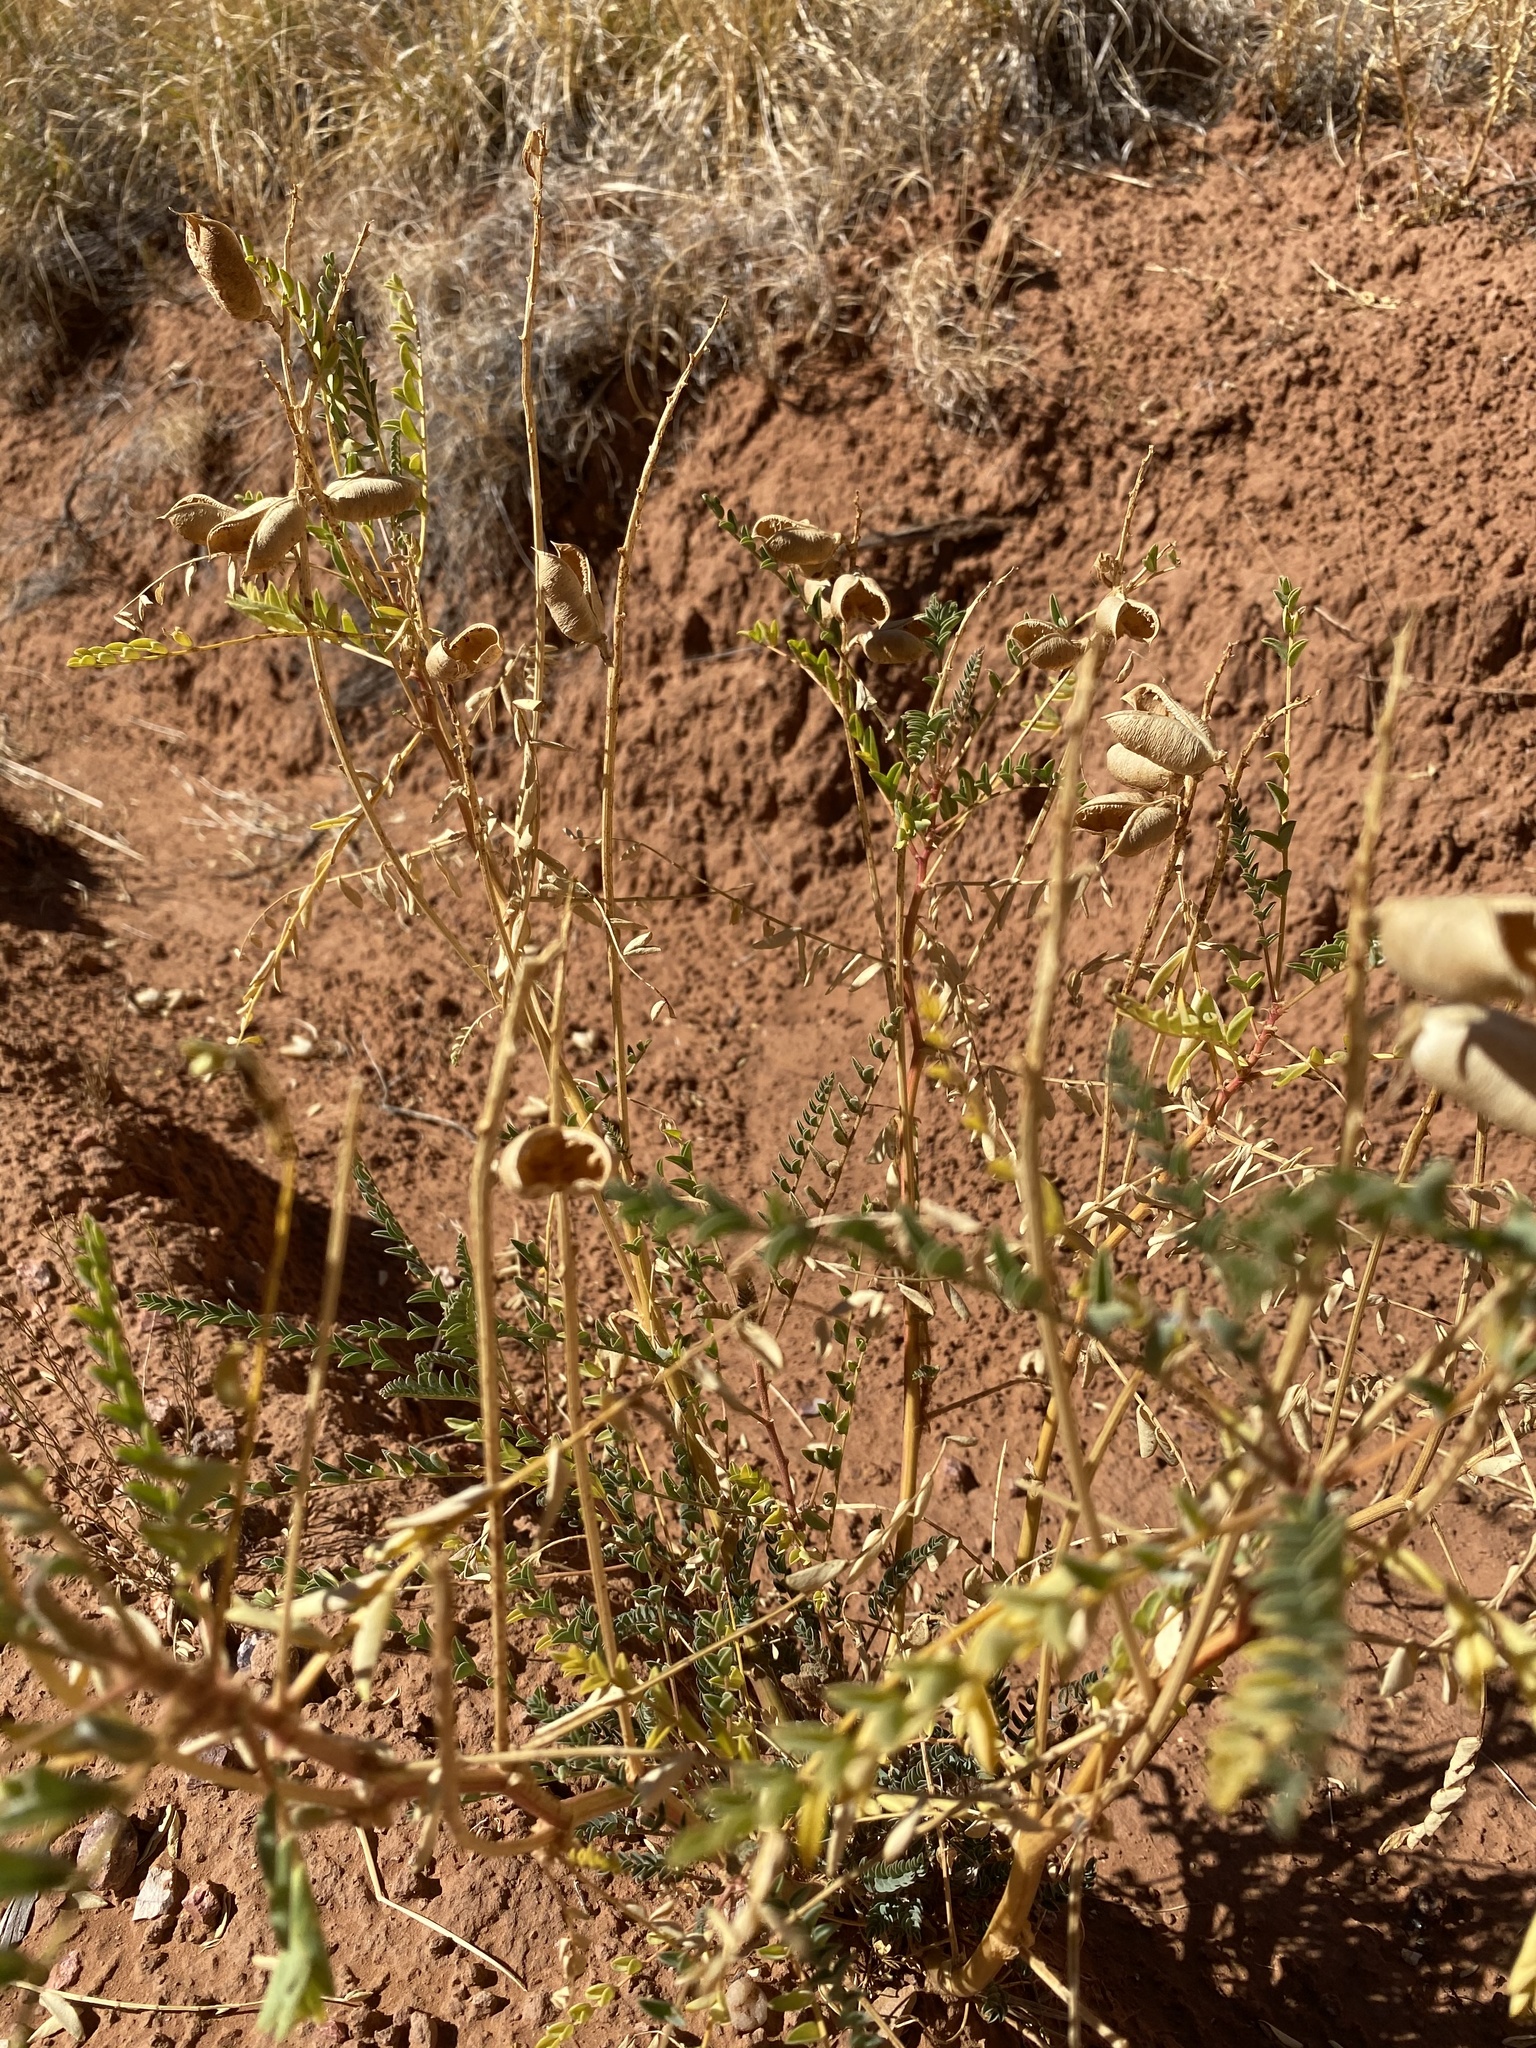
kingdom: Plantae
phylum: Tracheophyta
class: Magnoliopsida
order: Fabales
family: Fabaceae
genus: Astragalus
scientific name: Astragalus praelongus
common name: Stinking milk-vetch
